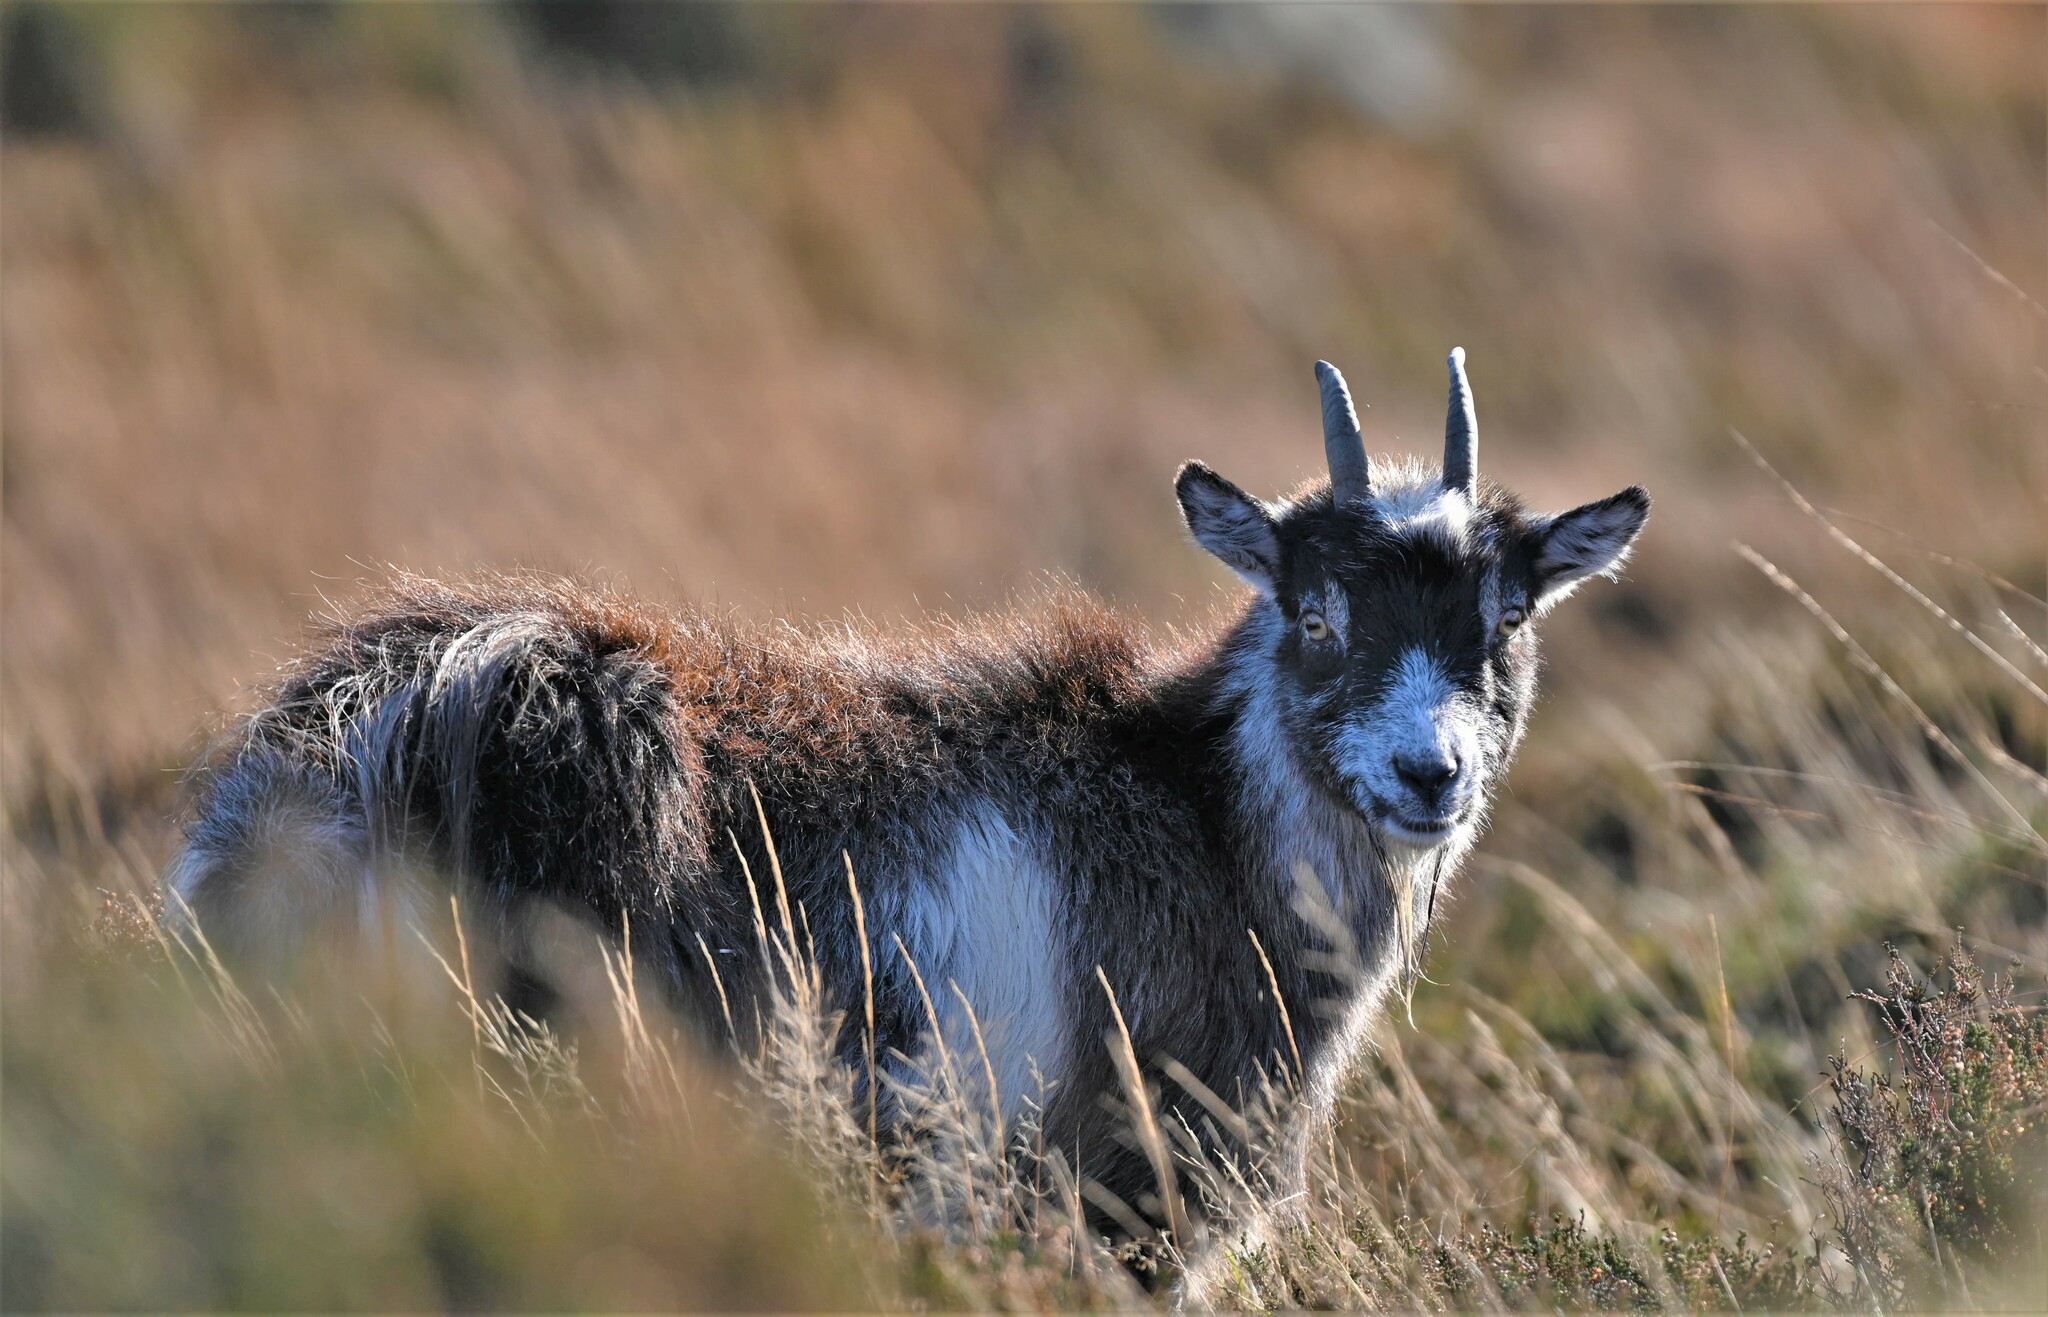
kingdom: Animalia
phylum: Chordata
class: Mammalia
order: Artiodactyla
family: Bovidae
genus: Capra
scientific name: Capra hircus
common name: Domestic goat
